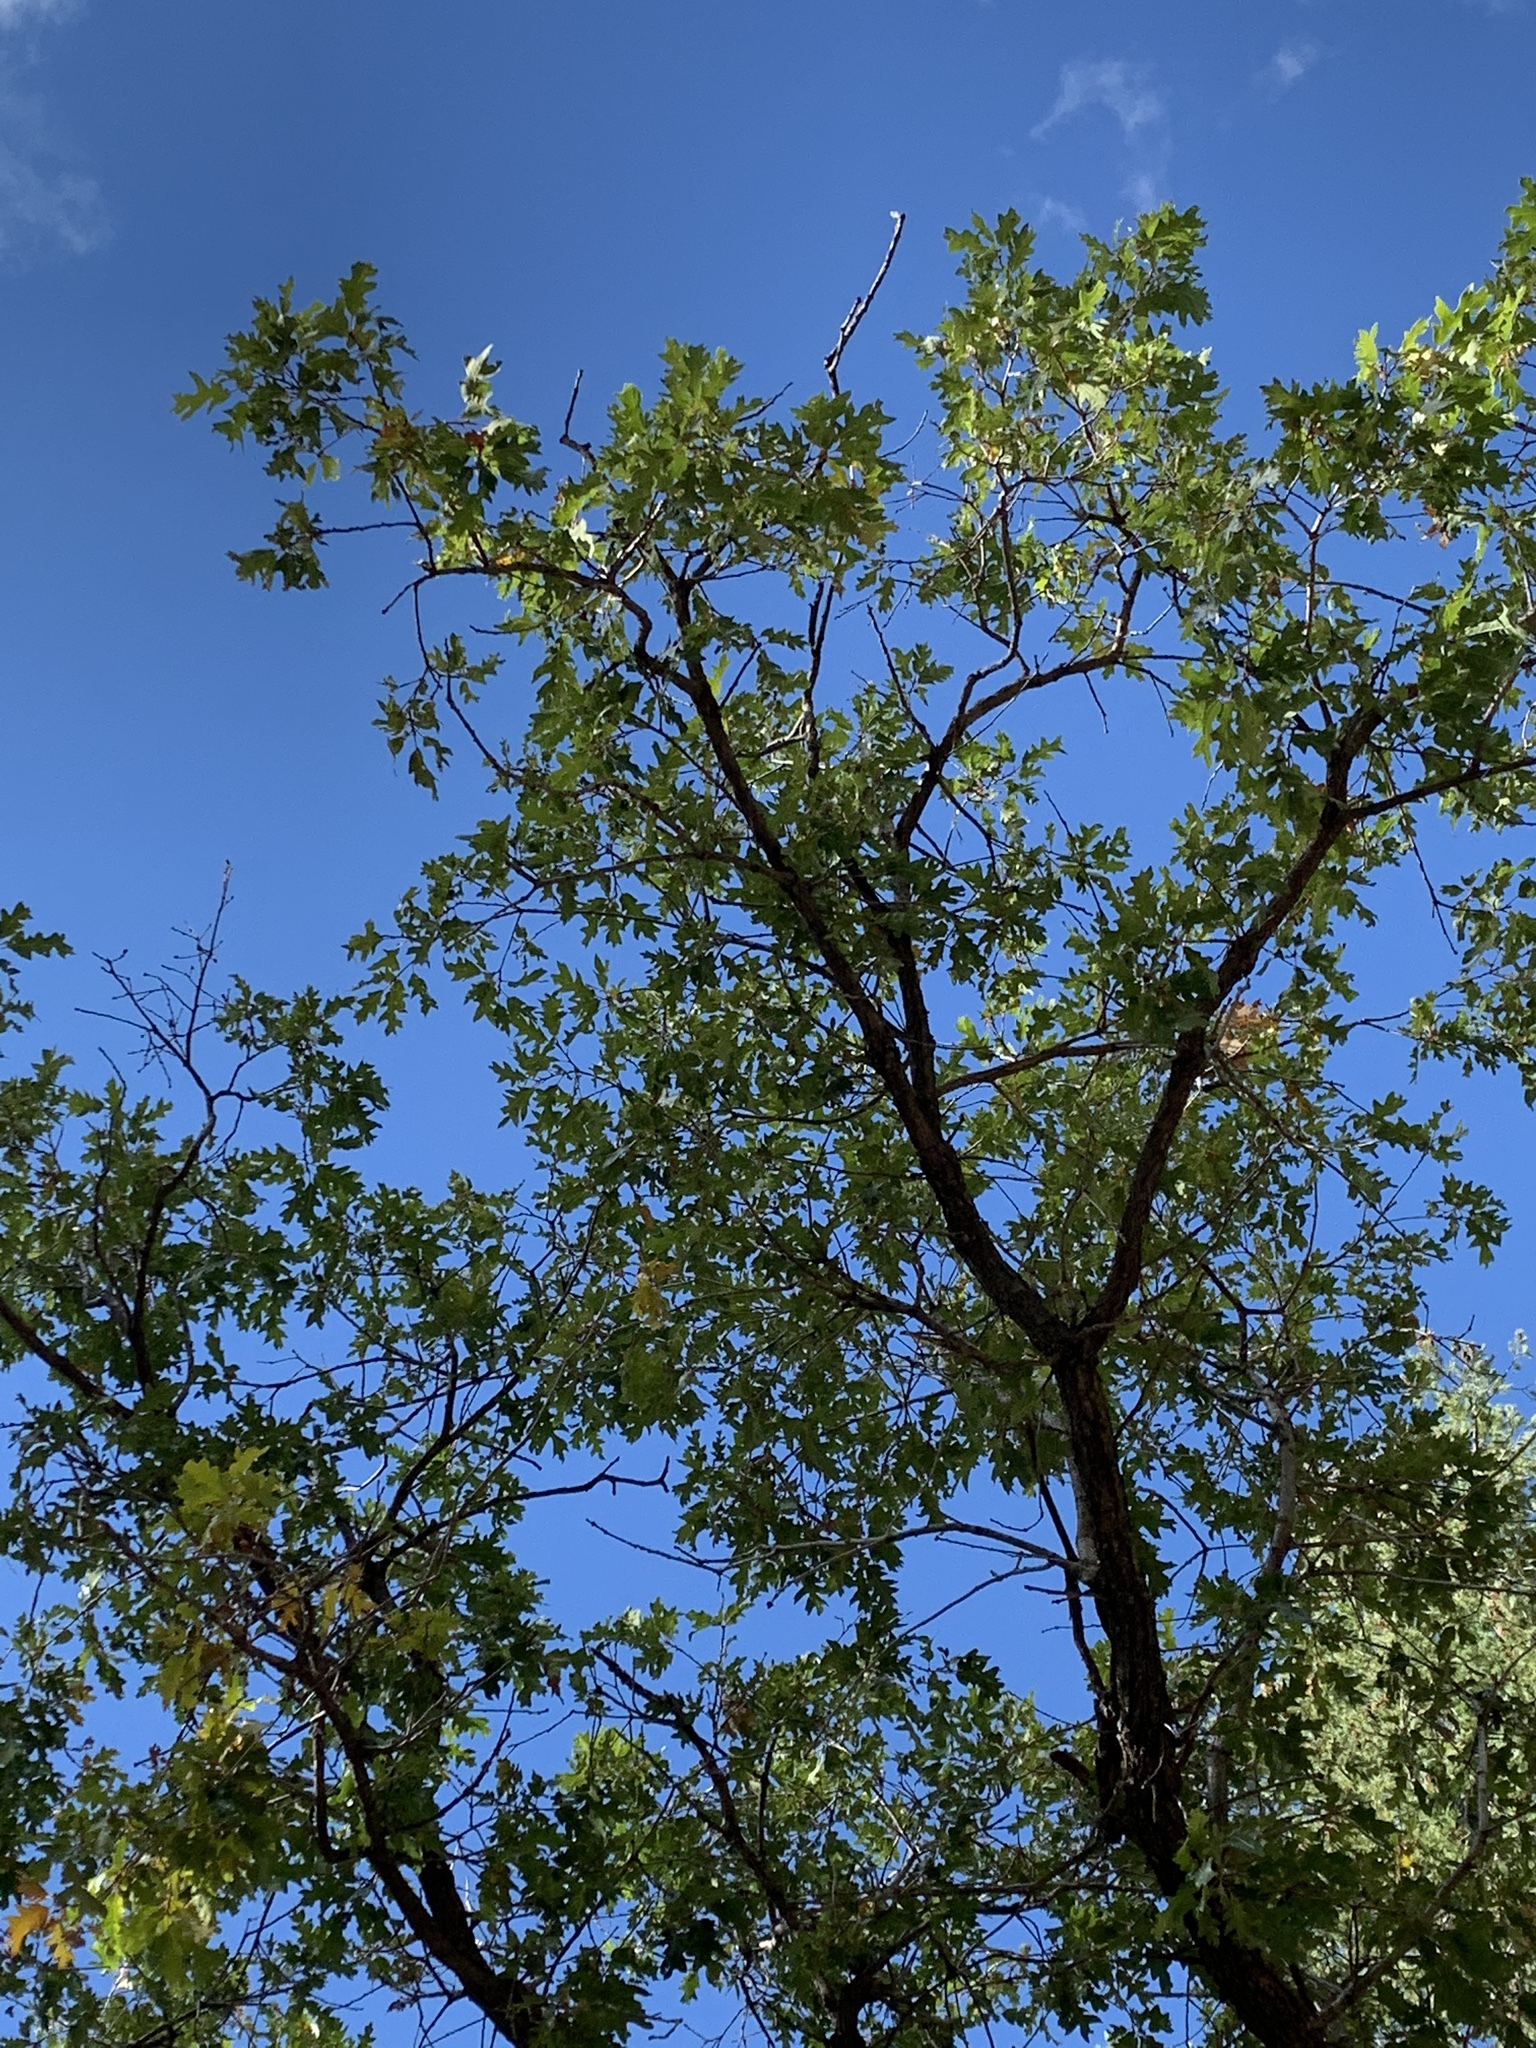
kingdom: Plantae
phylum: Tracheophyta
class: Magnoliopsida
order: Fagales
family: Fagaceae
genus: Quercus
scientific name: Quercus gambelii
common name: Gambel oak
